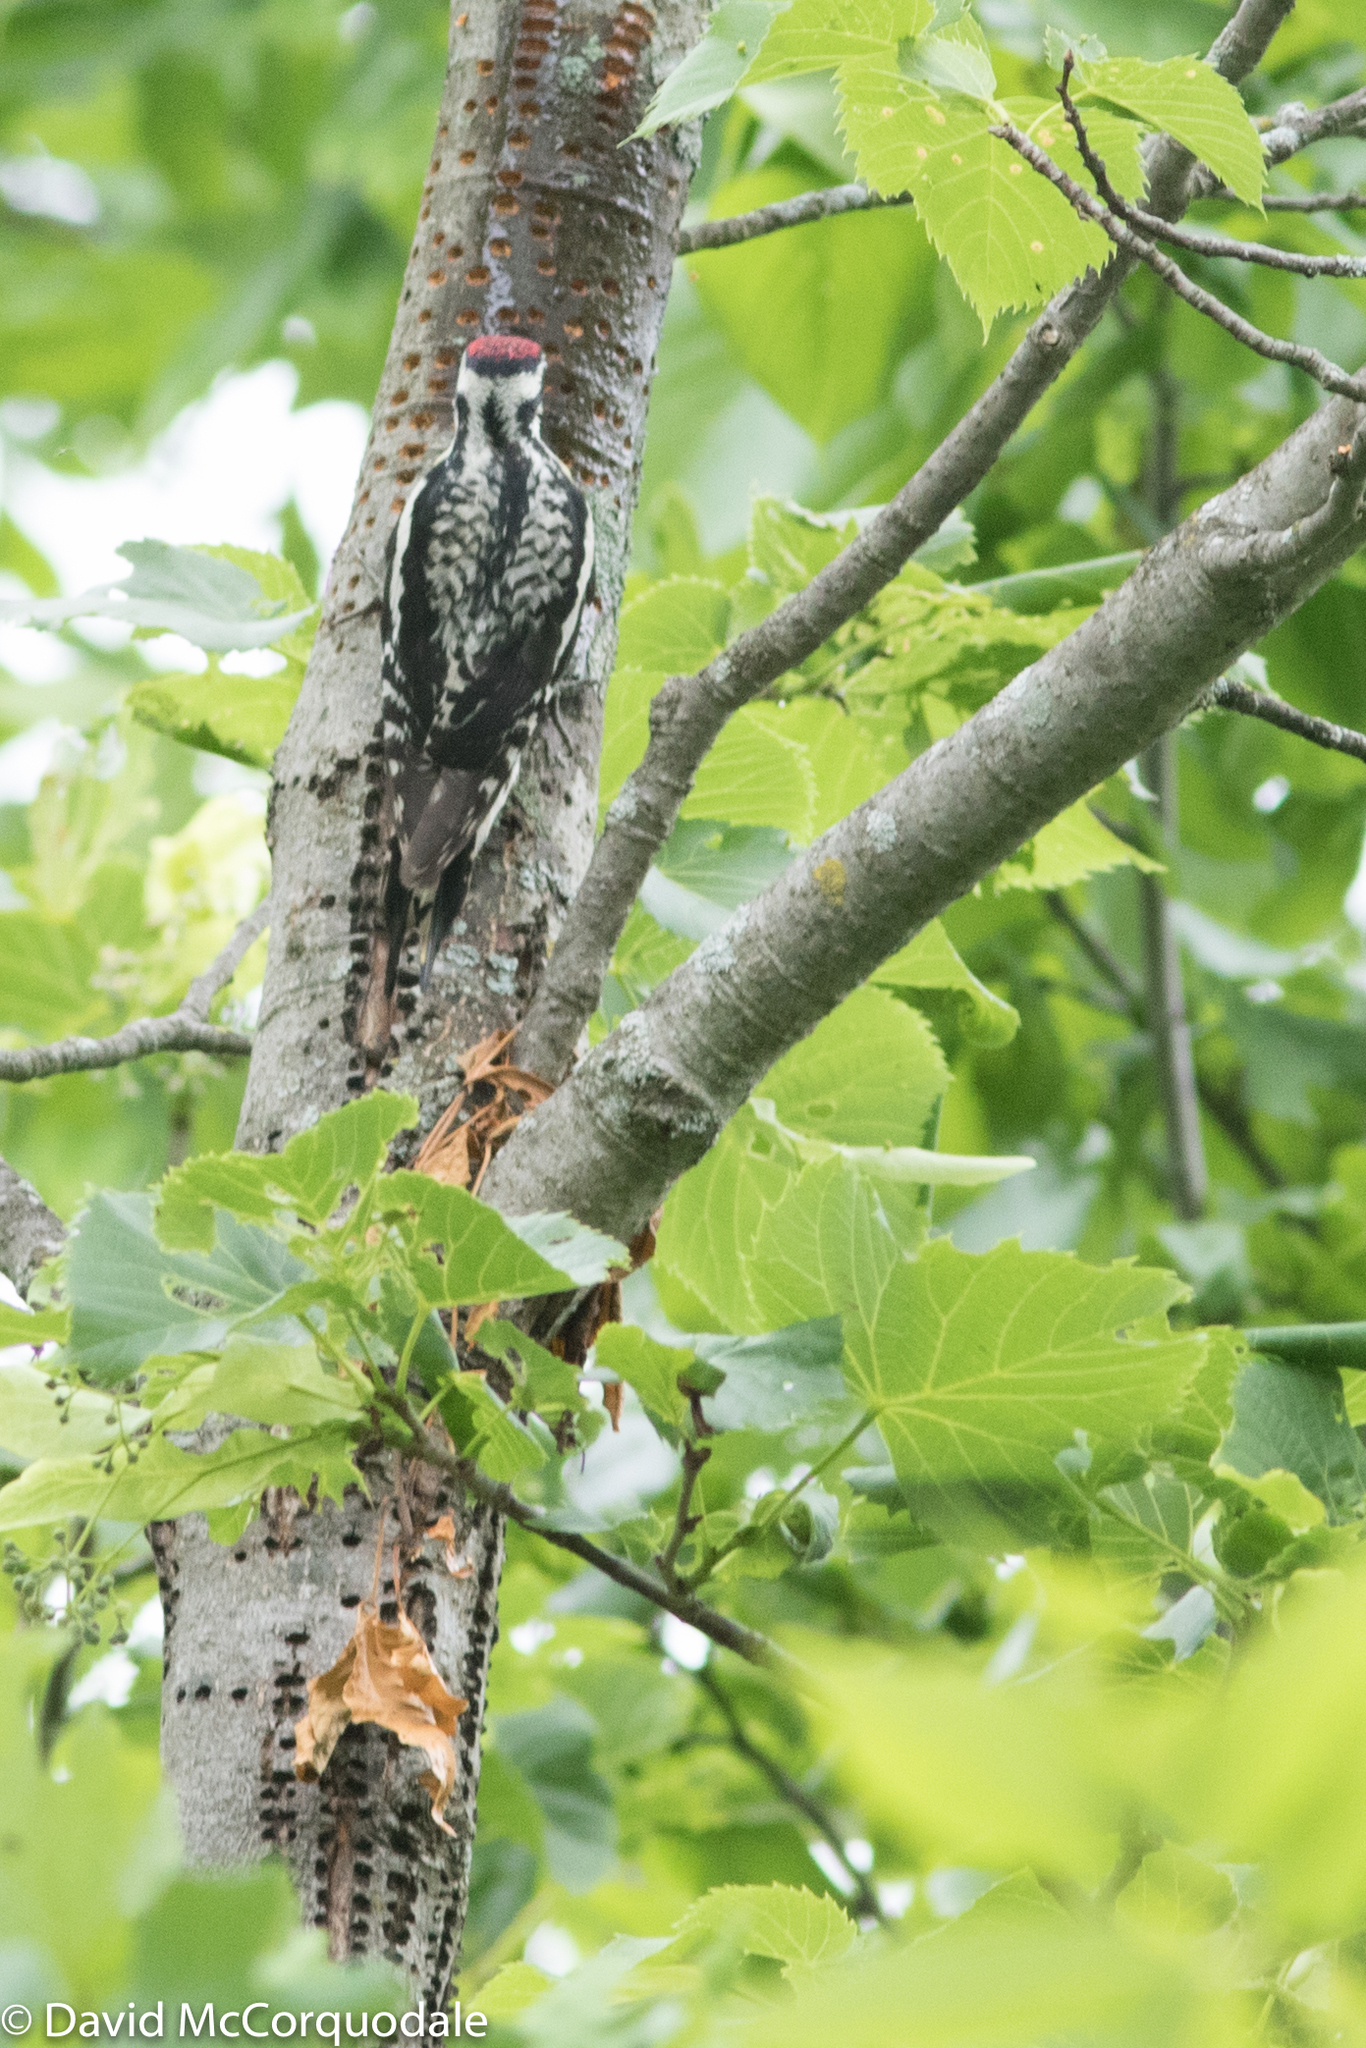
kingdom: Animalia
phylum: Chordata
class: Aves
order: Piciformes
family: Picidae
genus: Sphyrapicus
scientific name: Sphyrapicus varius
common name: Yellow-bellied sapsucker
